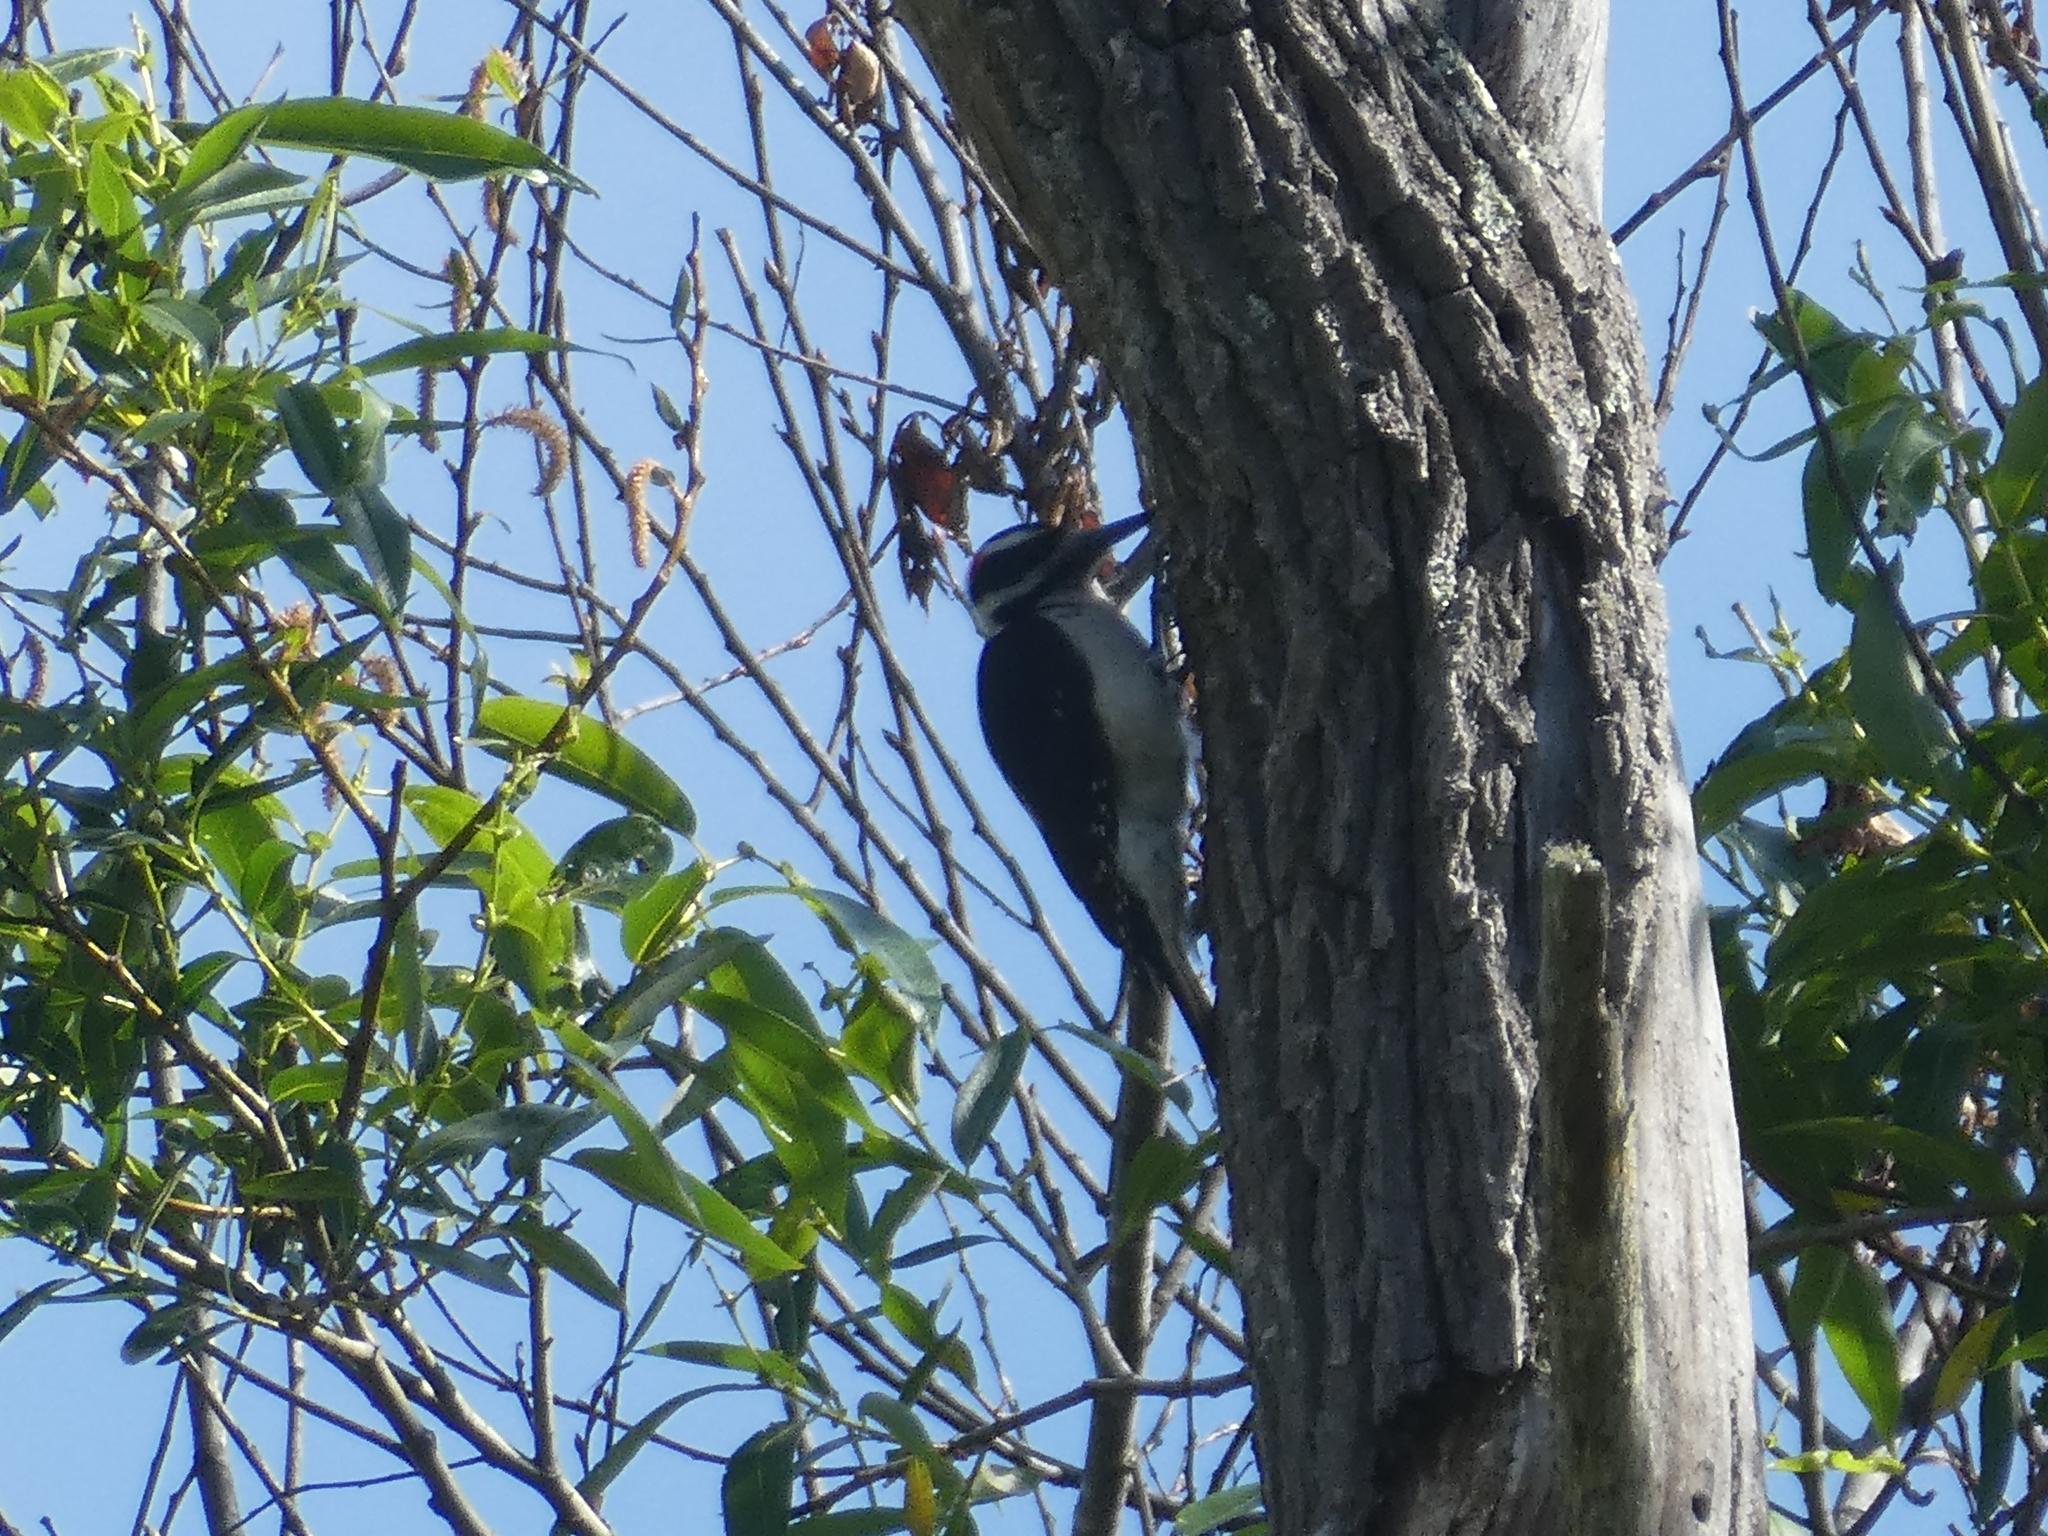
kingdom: Animalia
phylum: Chordata
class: Aves
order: Piciformes
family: Picidae
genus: Leuconotopicus
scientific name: Leuconotopicus villosus
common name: Hairy woodpecker
